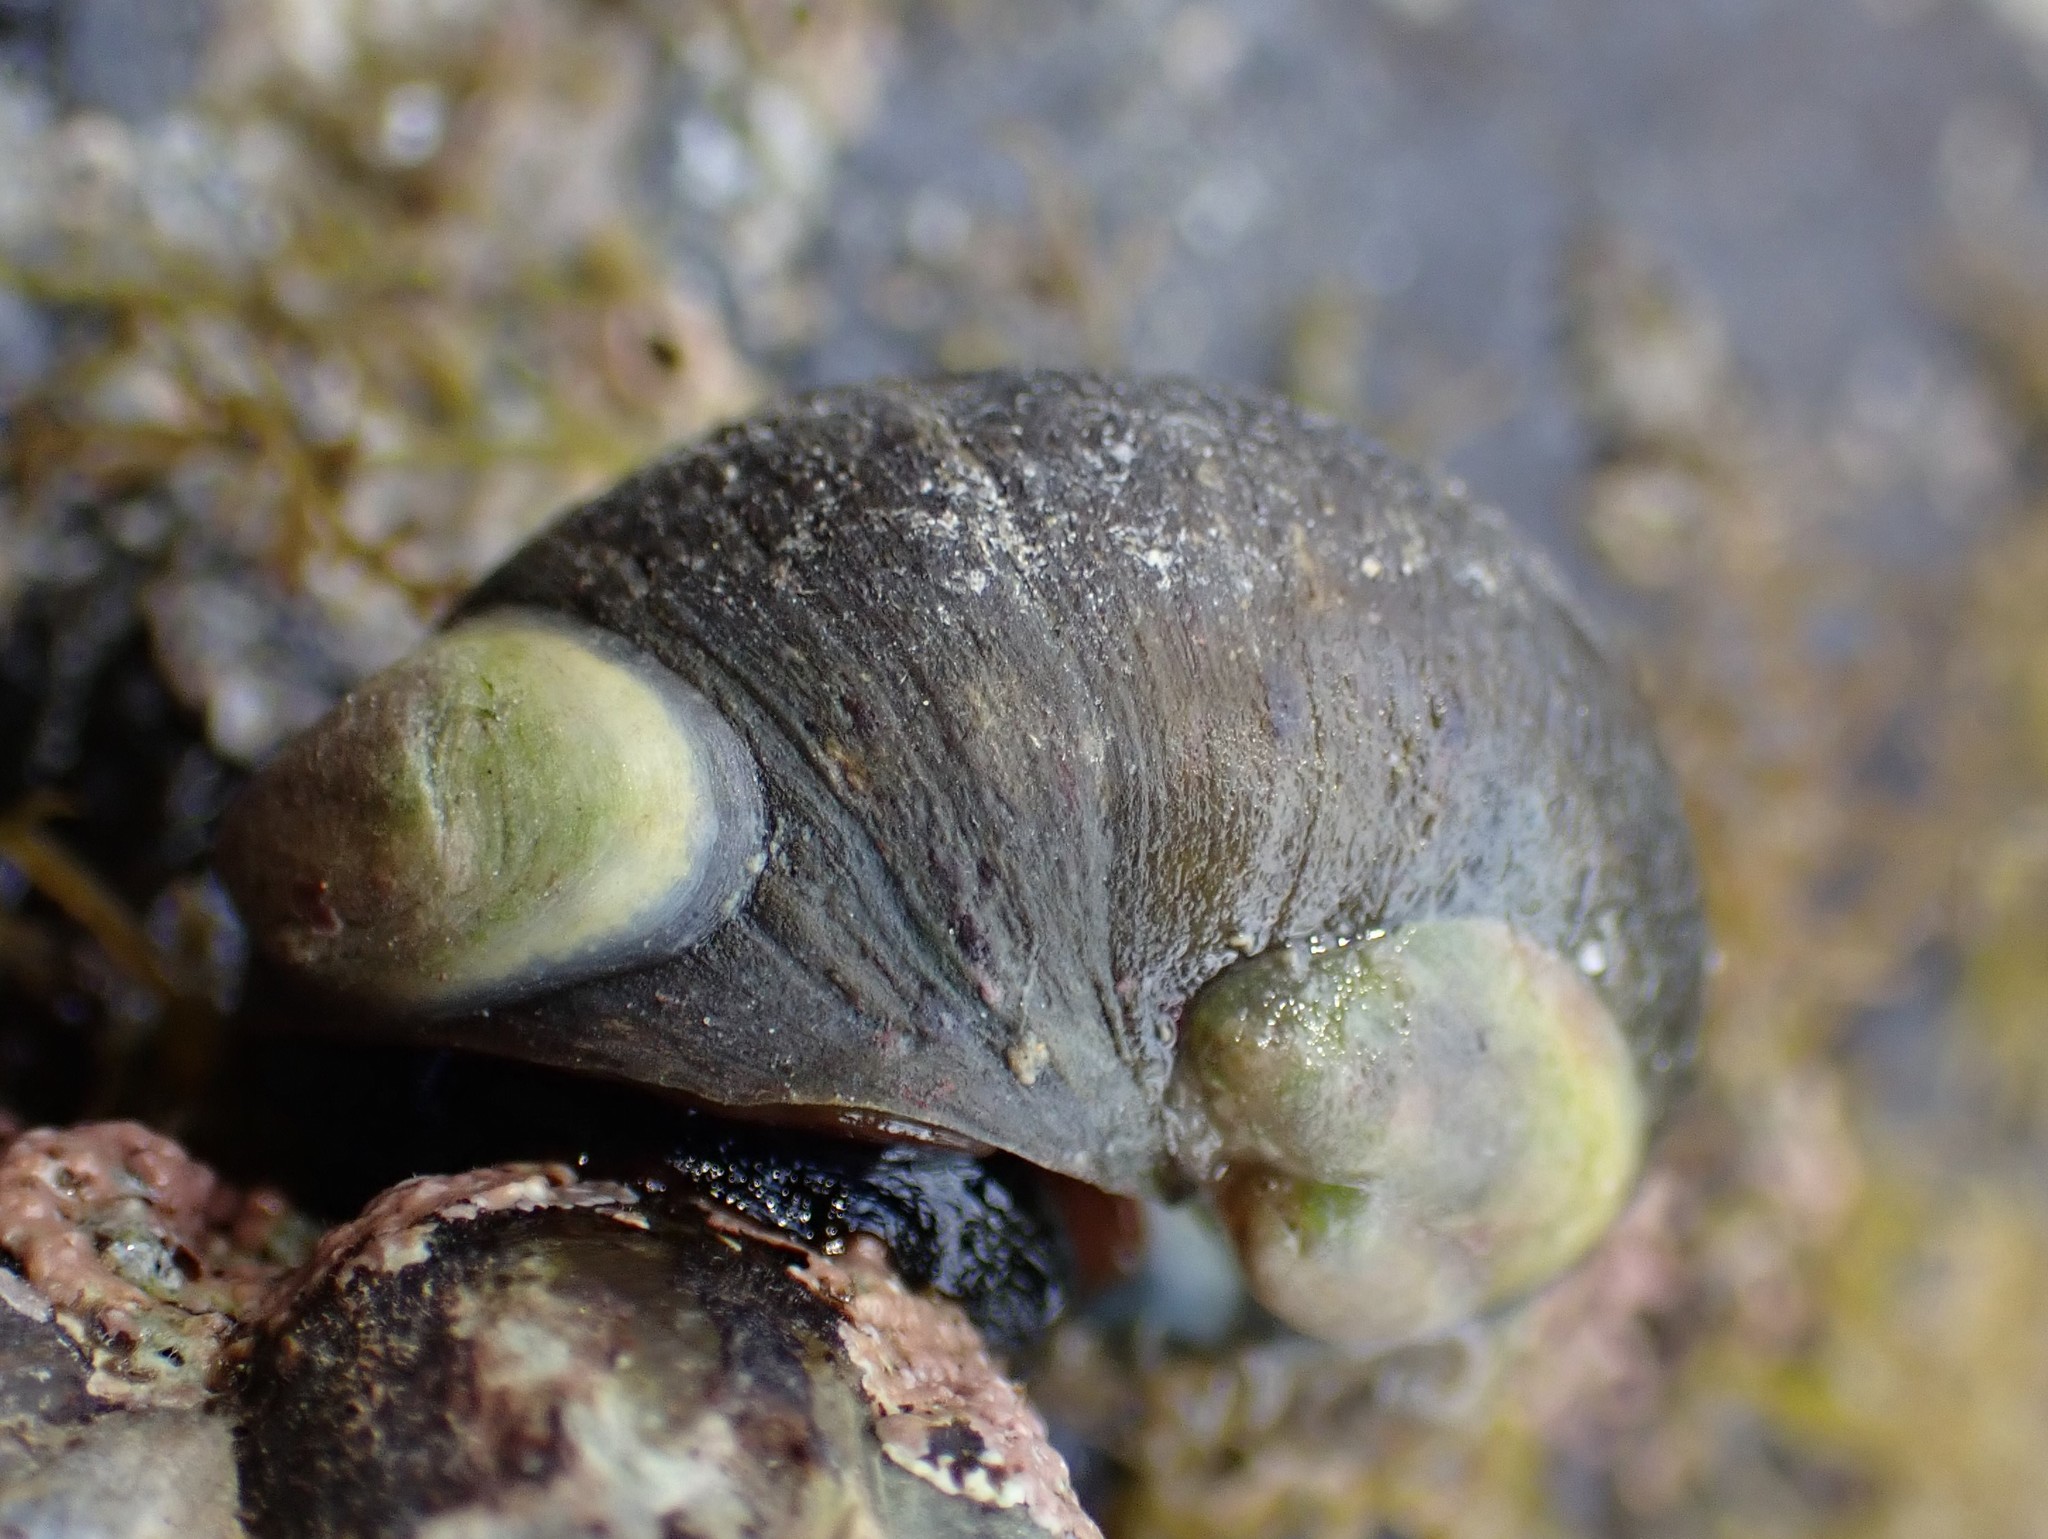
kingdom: Animalia
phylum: Mollusca
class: Gastropoda
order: Littorinimorpha
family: Calyptraeidae
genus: Maoricrypta
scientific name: Maoricrypta monoxyla
